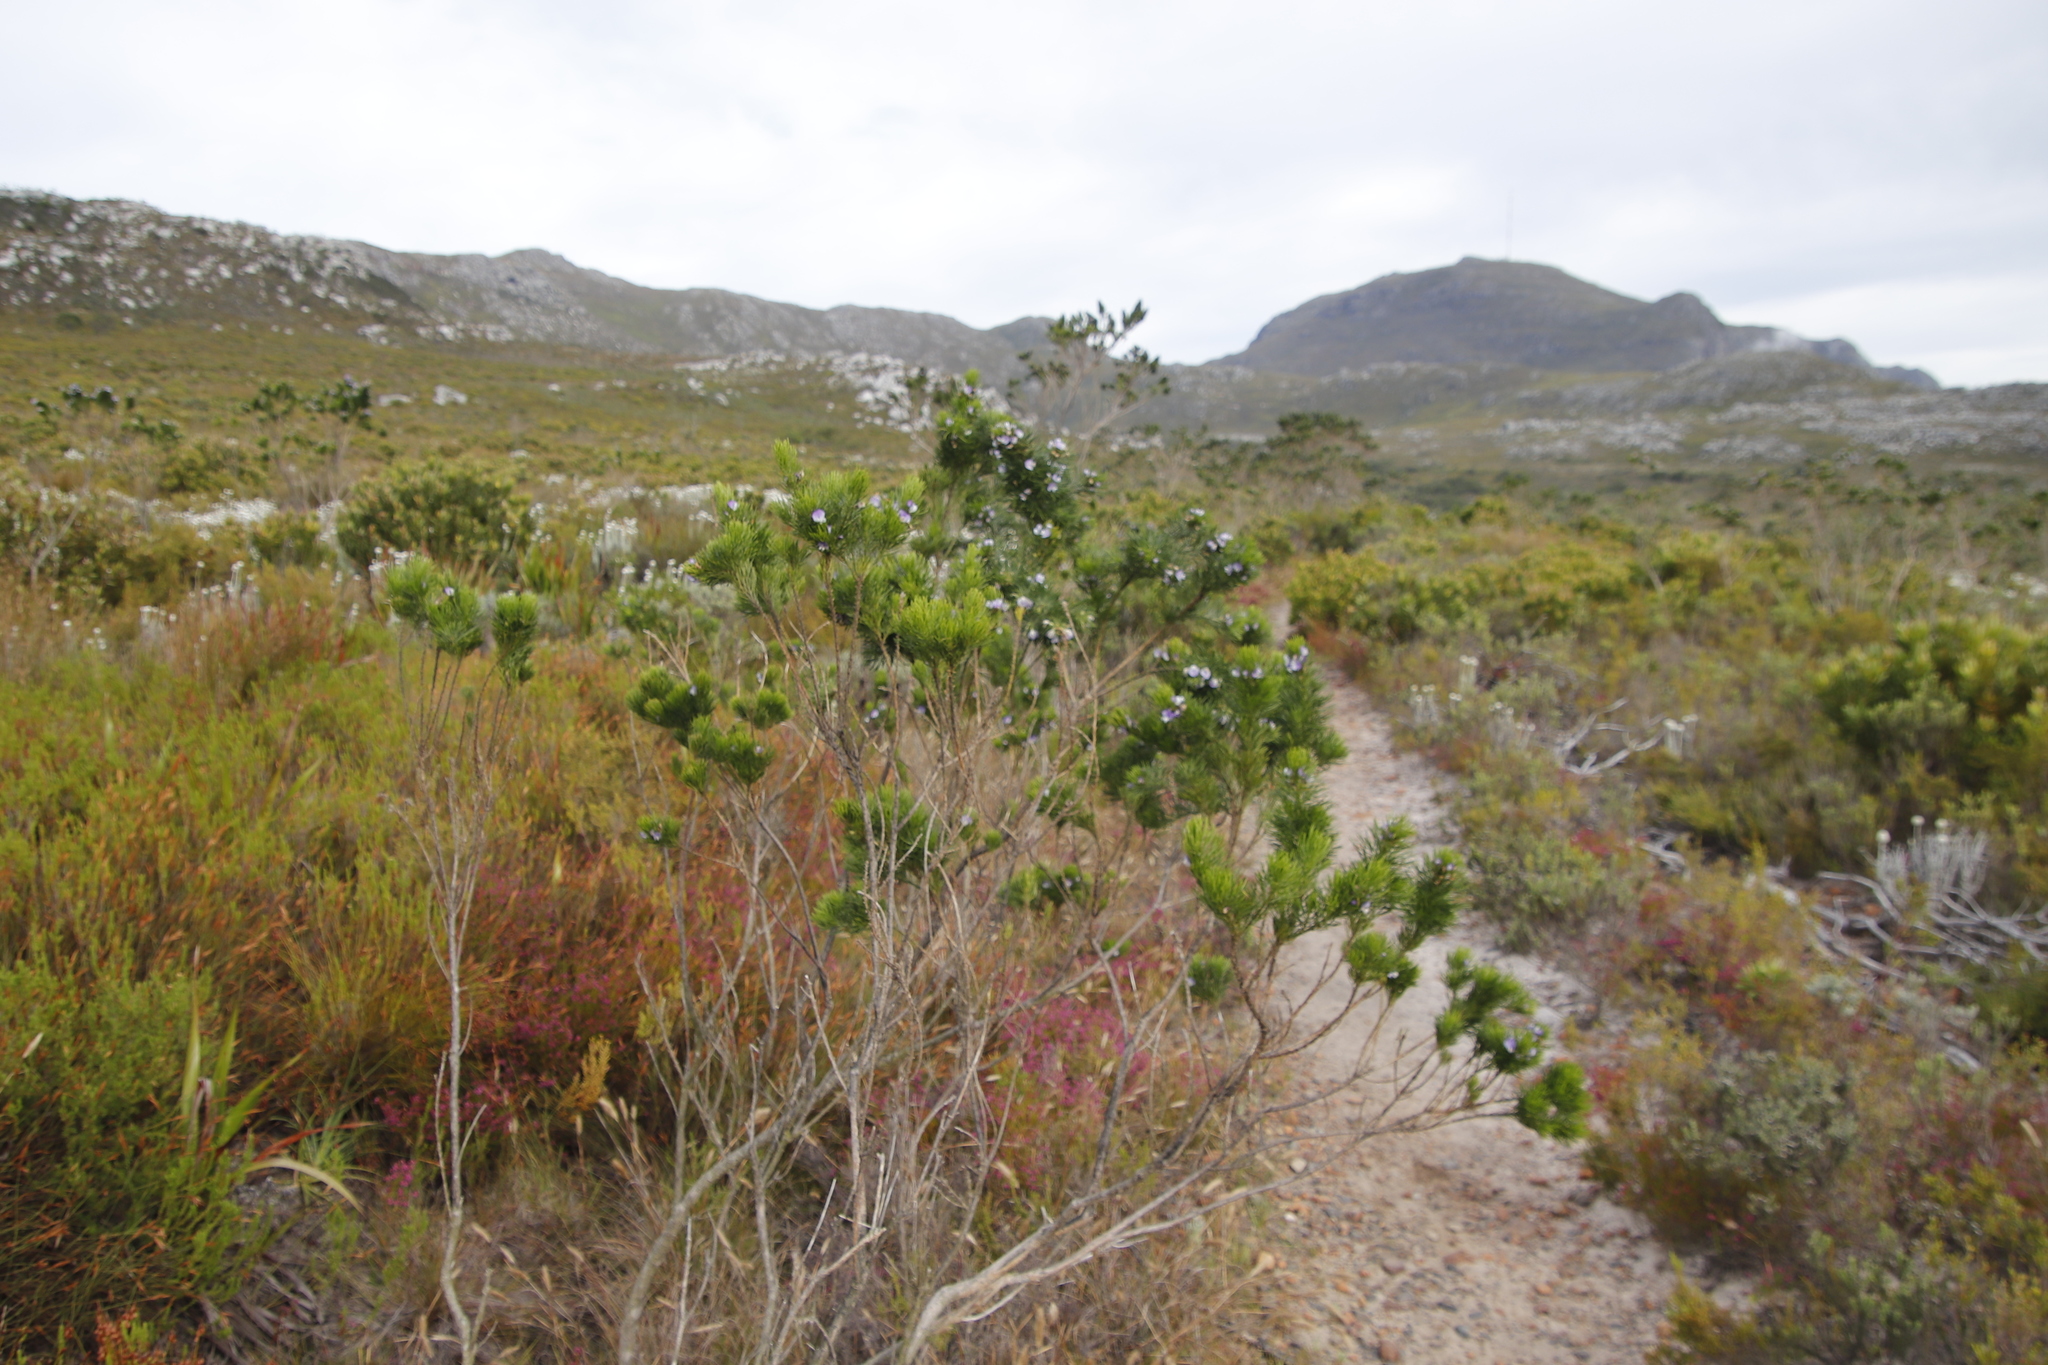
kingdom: Plantae
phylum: Tracheophyta
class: Magnoliopsida
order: Fabales
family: Fabaceae
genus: Psoralea
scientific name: Psoralea pinnata
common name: African scurfpea
